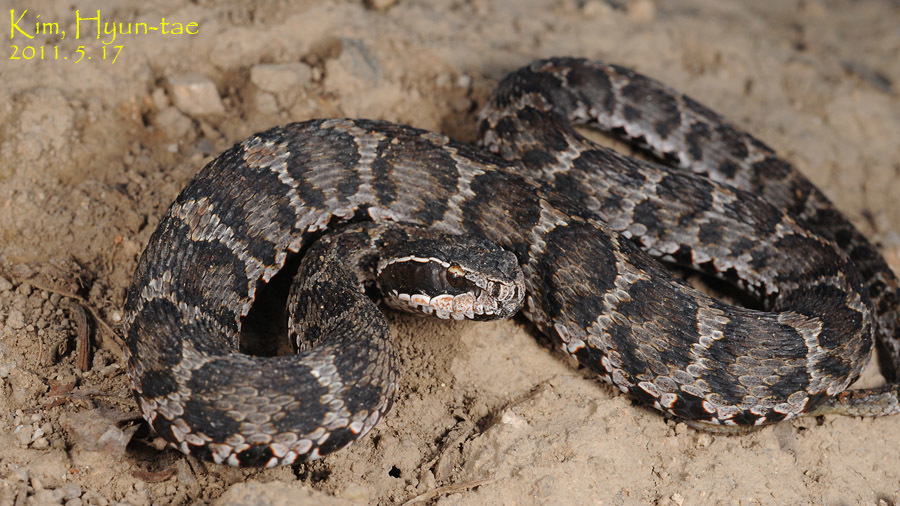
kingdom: Animalia
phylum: Chordata
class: Squamata
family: Viperidae
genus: Gloydius
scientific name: Gloydius brevicauda
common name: Short-tailed mamushi
